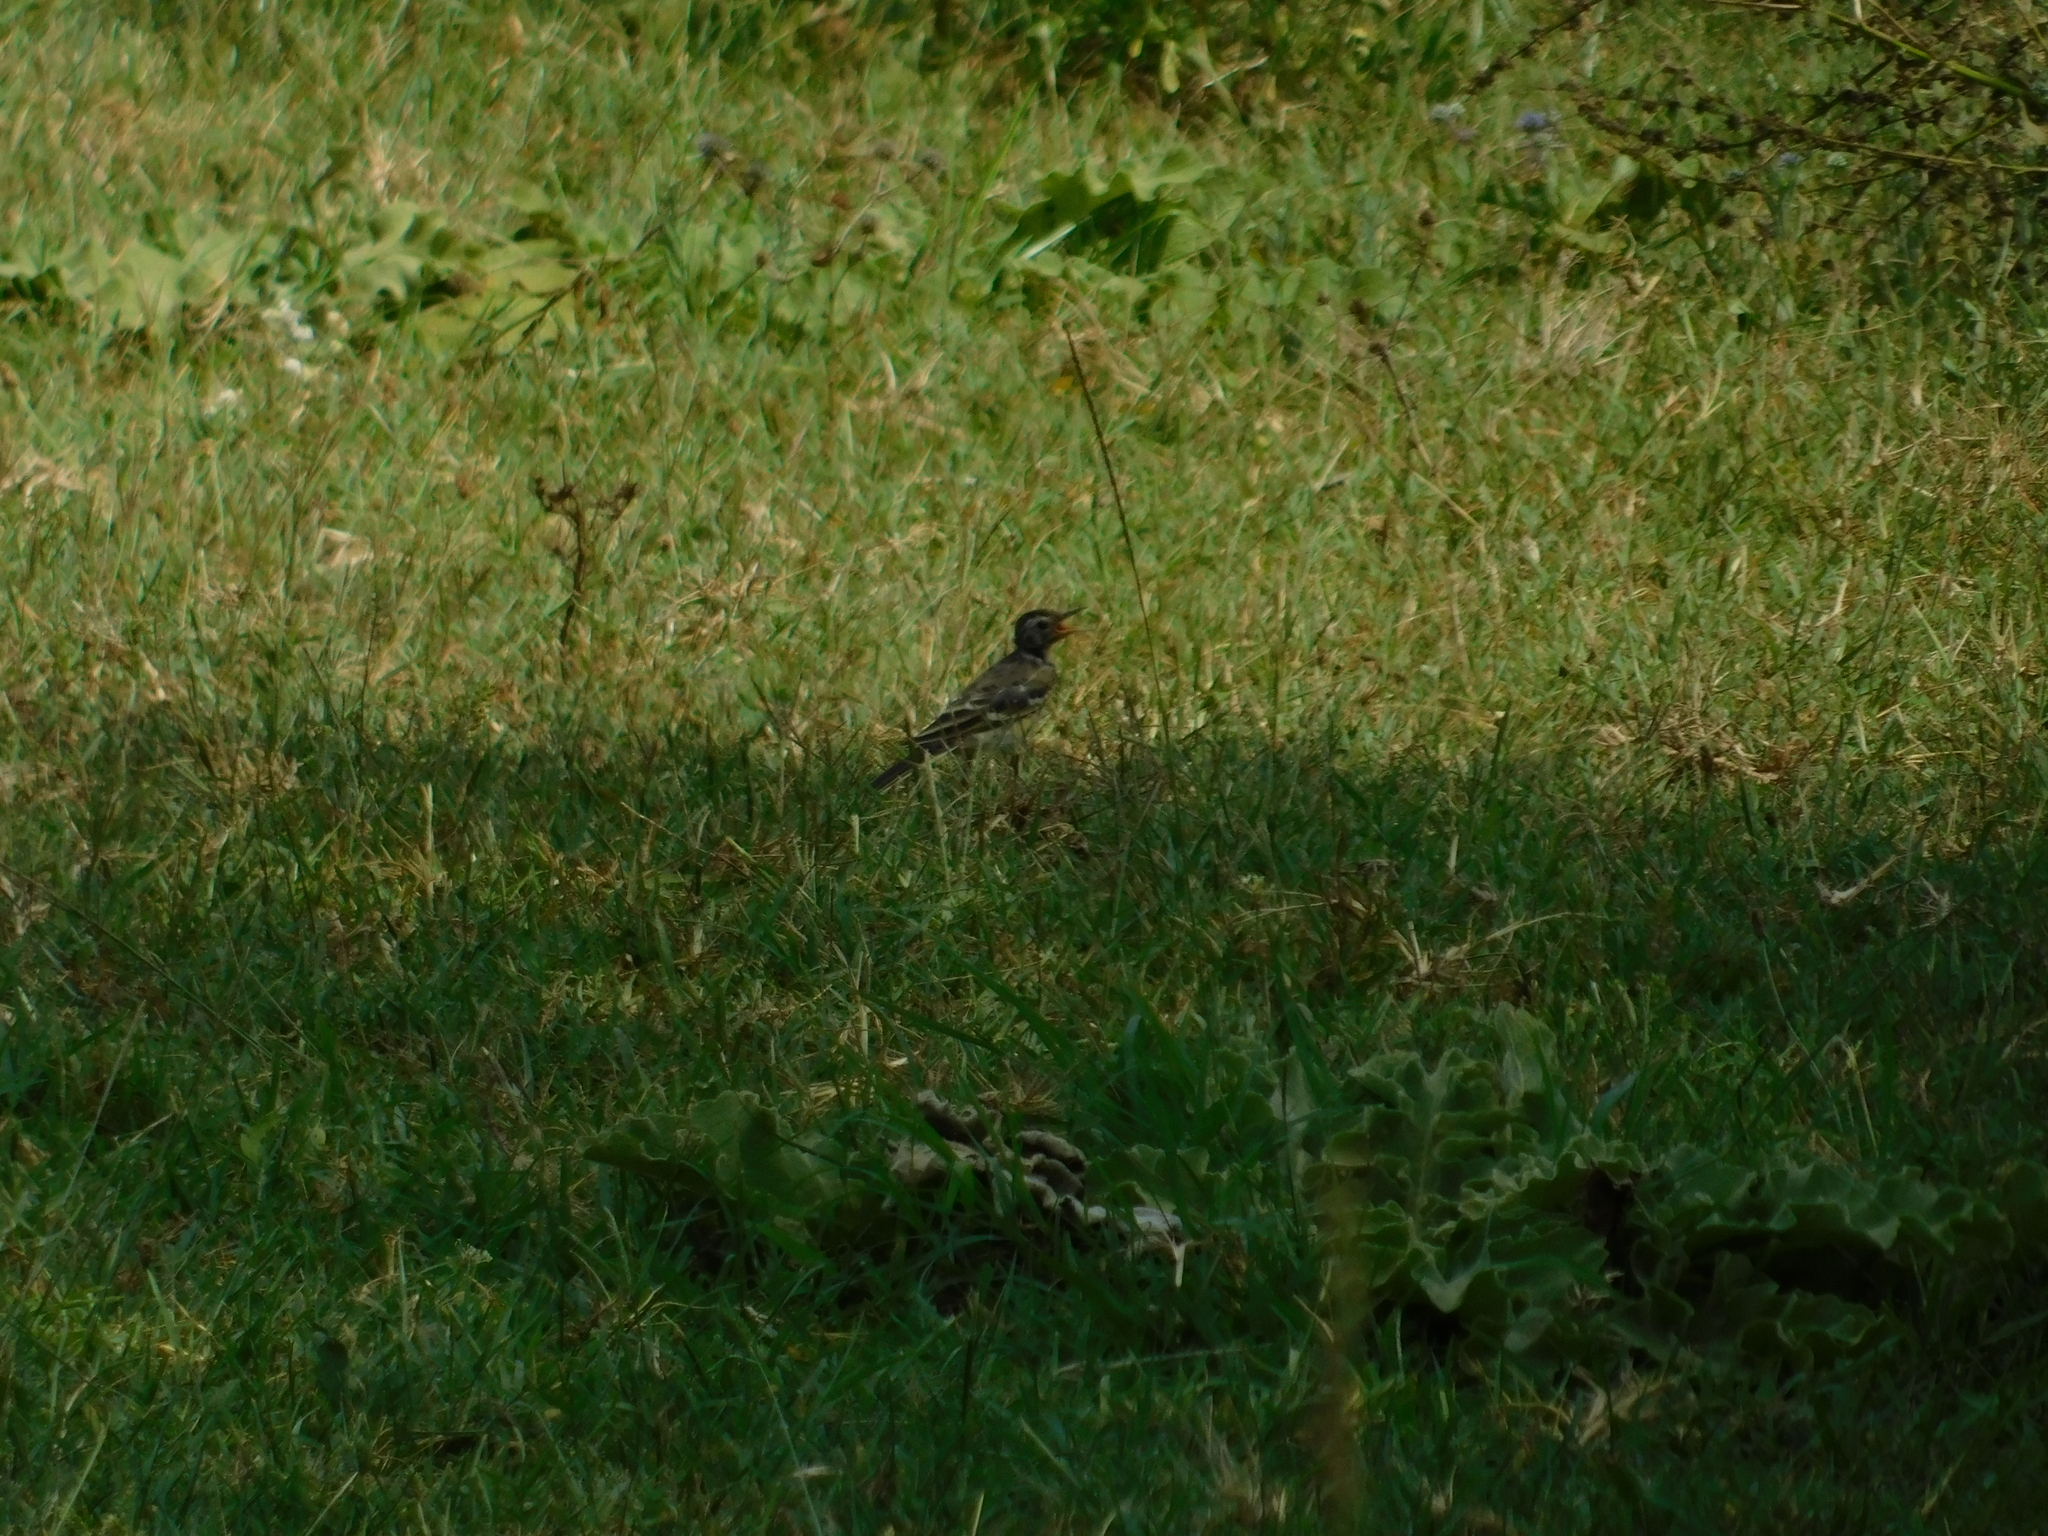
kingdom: Animalia
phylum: Chordata
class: Aves
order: Passeriformes
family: Motacillidae
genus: Motacilla
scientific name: Motacilla flava
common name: Western yellow wagtail
